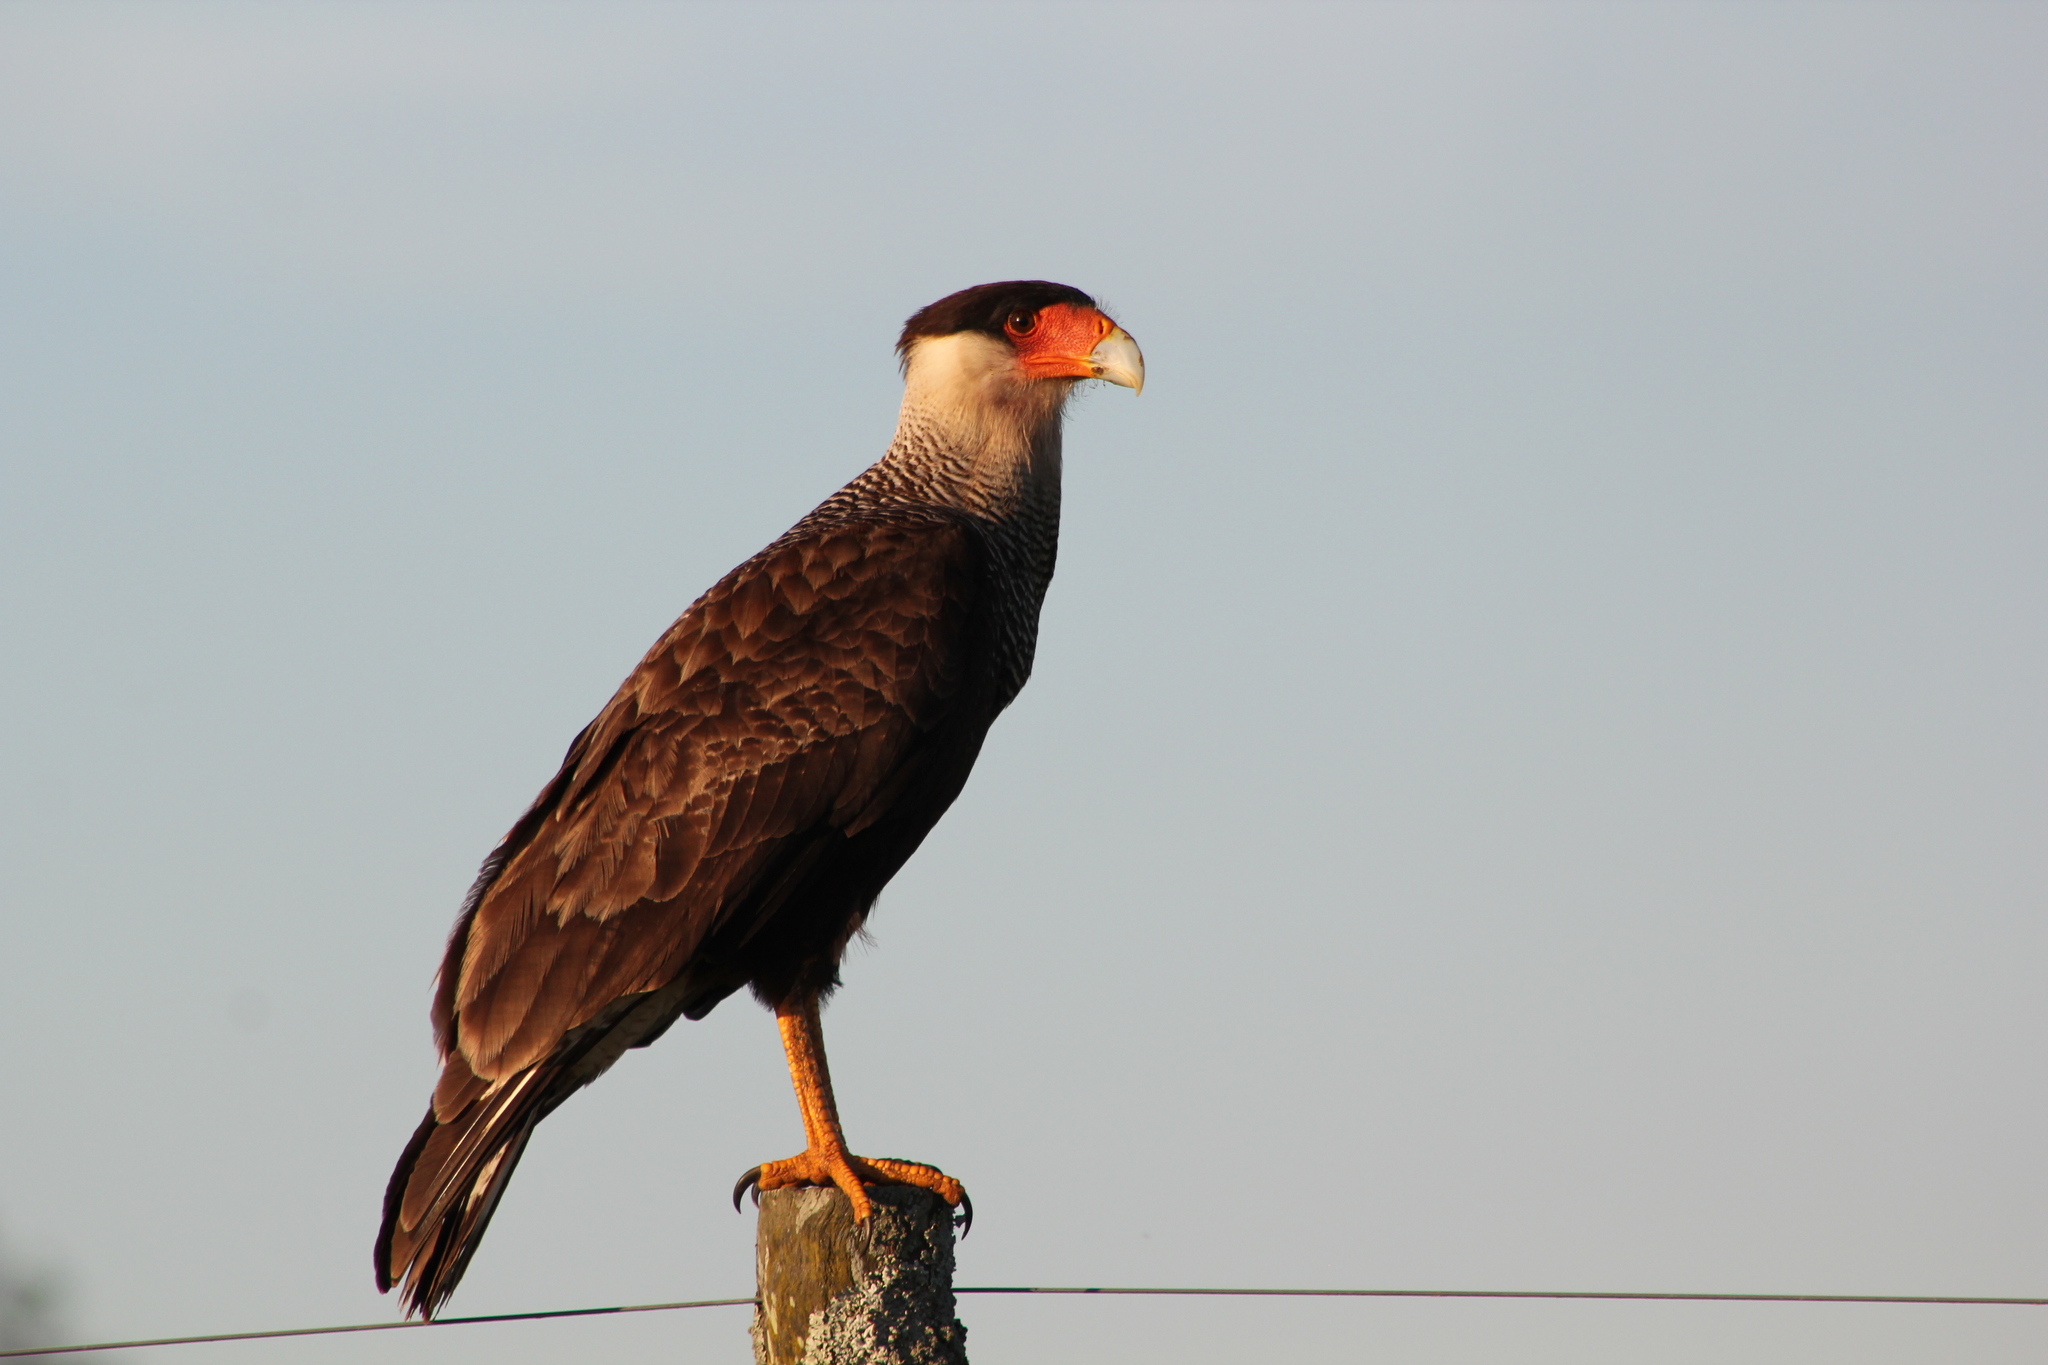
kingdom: Animalia
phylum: Chordata
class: Aves
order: Falconiformes
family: Falconidae
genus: Caracara
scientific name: Caracara plancus
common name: Southern caracara
